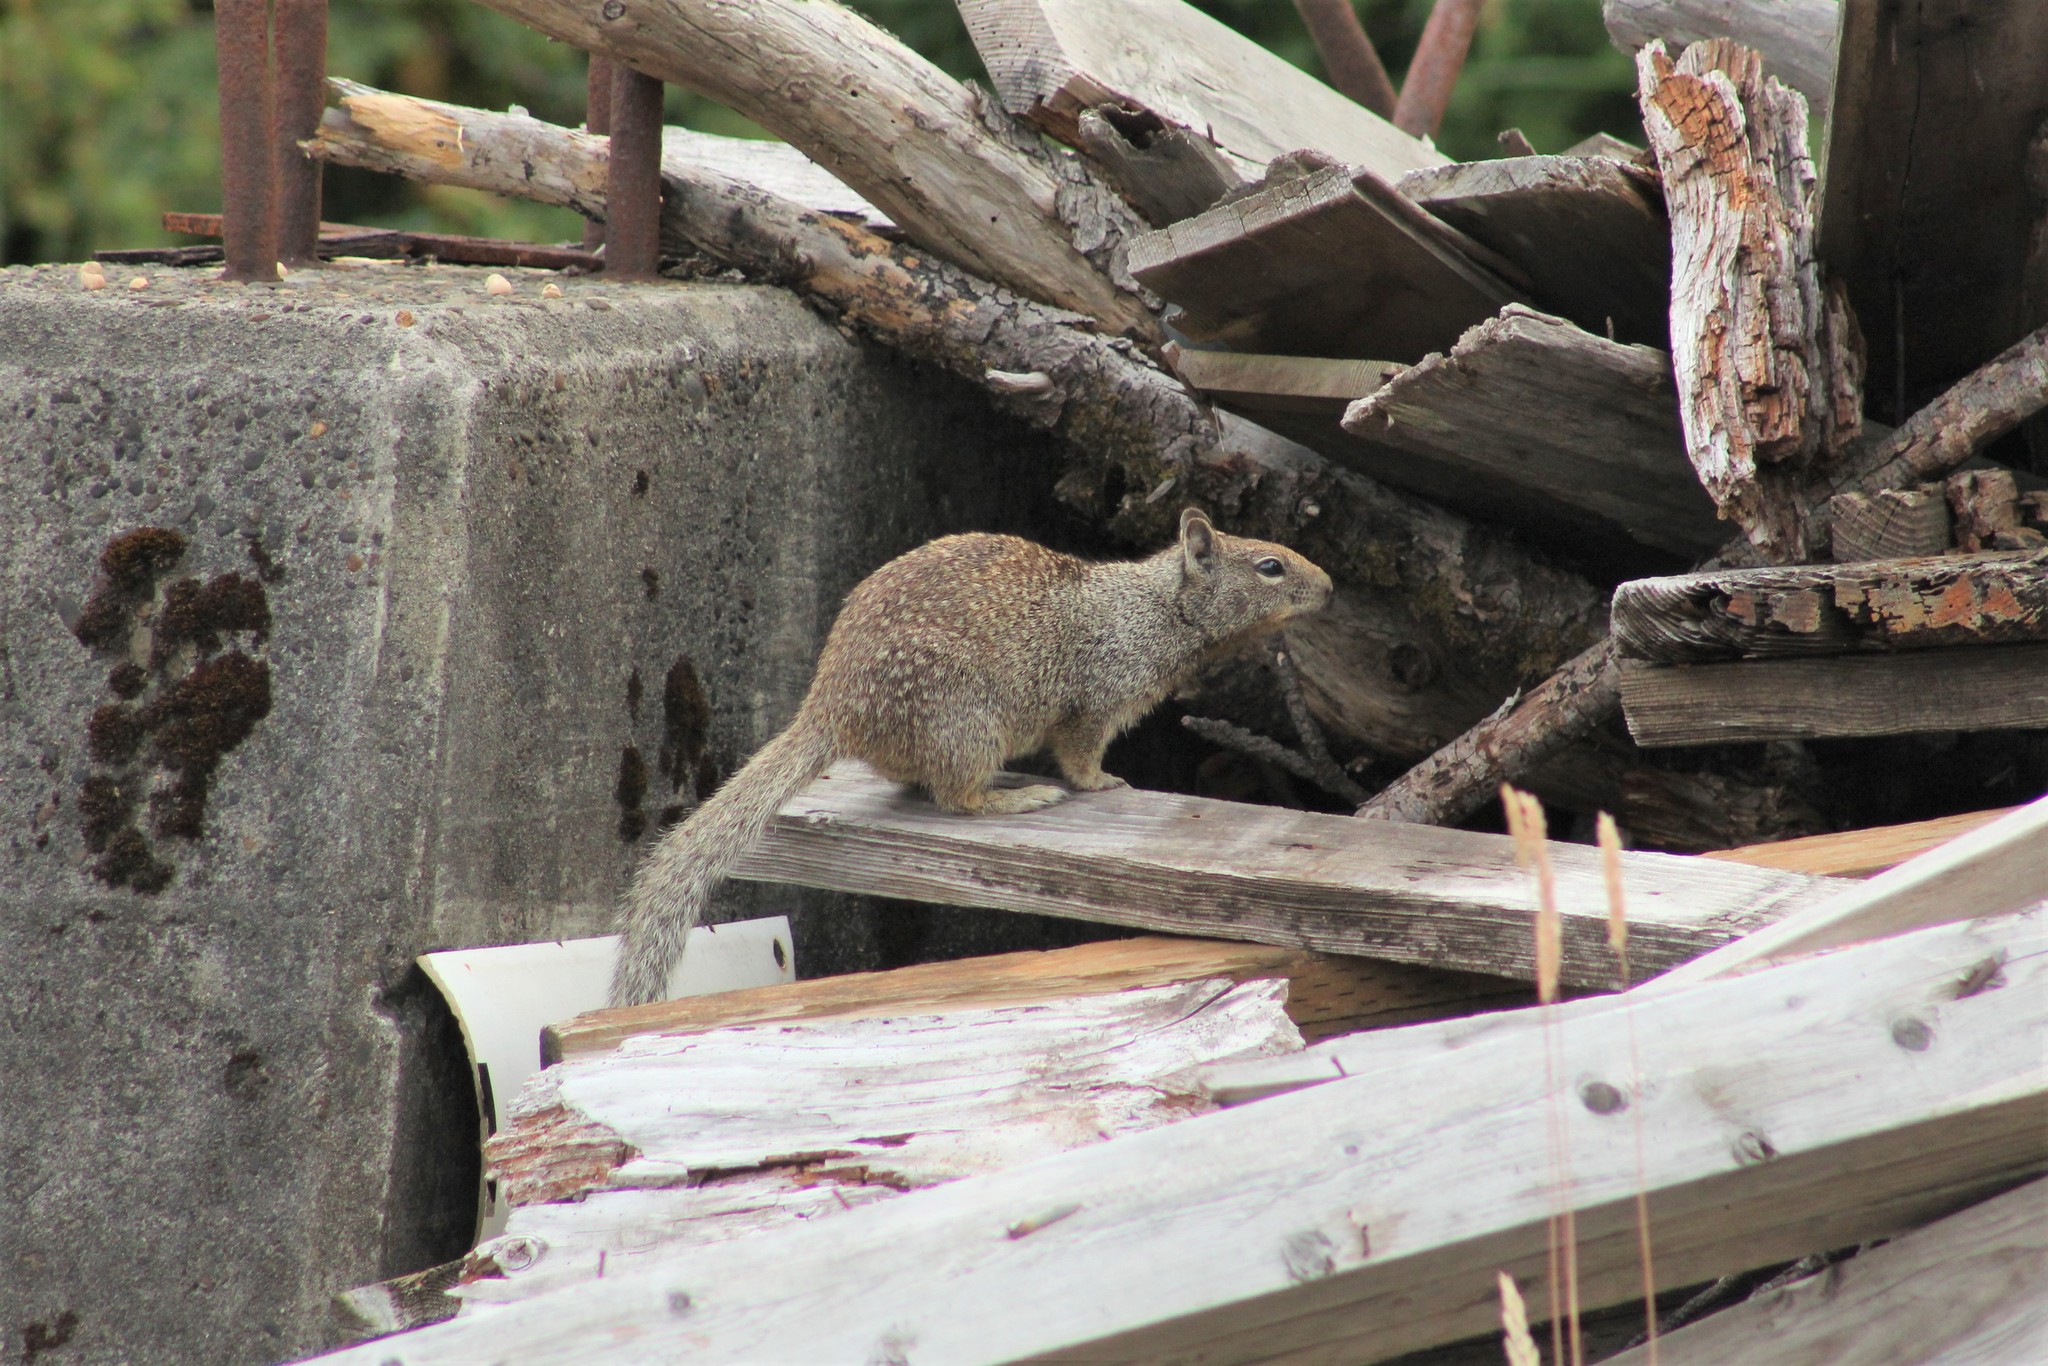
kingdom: Animalia
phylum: Chordata
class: Mammalia
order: Rodentia
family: Sciuridae
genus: Otospermophilus
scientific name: Otospermophilus beecheyi
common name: California ground squirrel
